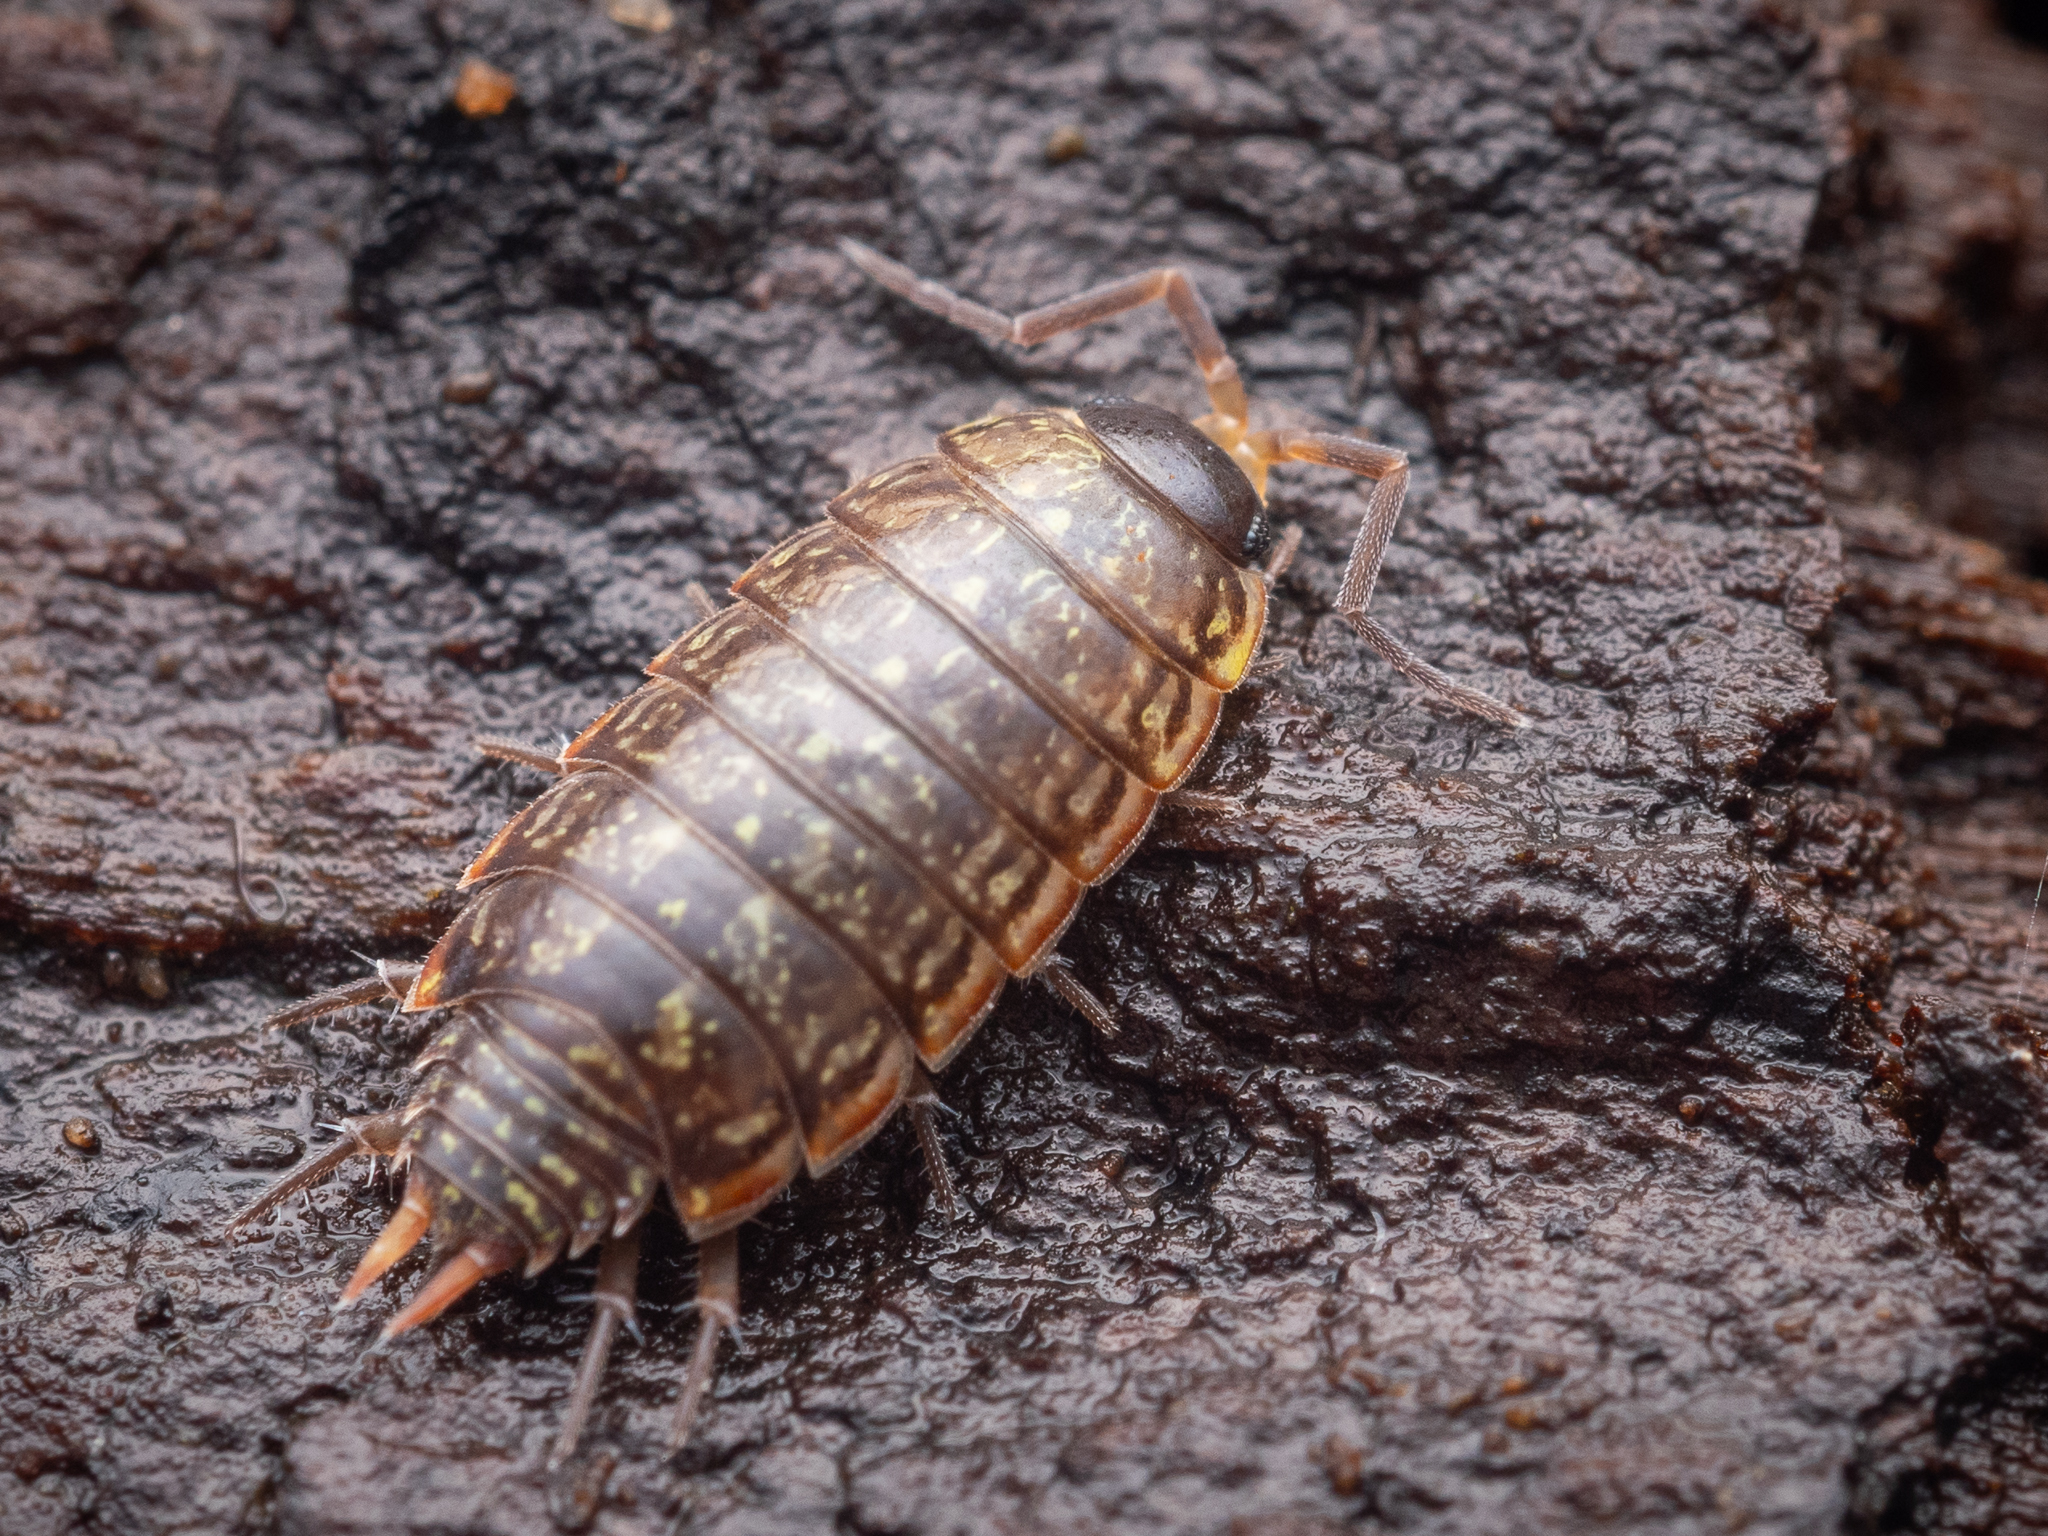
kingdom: Animalia
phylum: Arthropoda
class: Malacostraca
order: Isopoda
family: Philosciidae
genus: Philoscia
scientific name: Philoscia muscorum
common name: Common striped woodlouse
